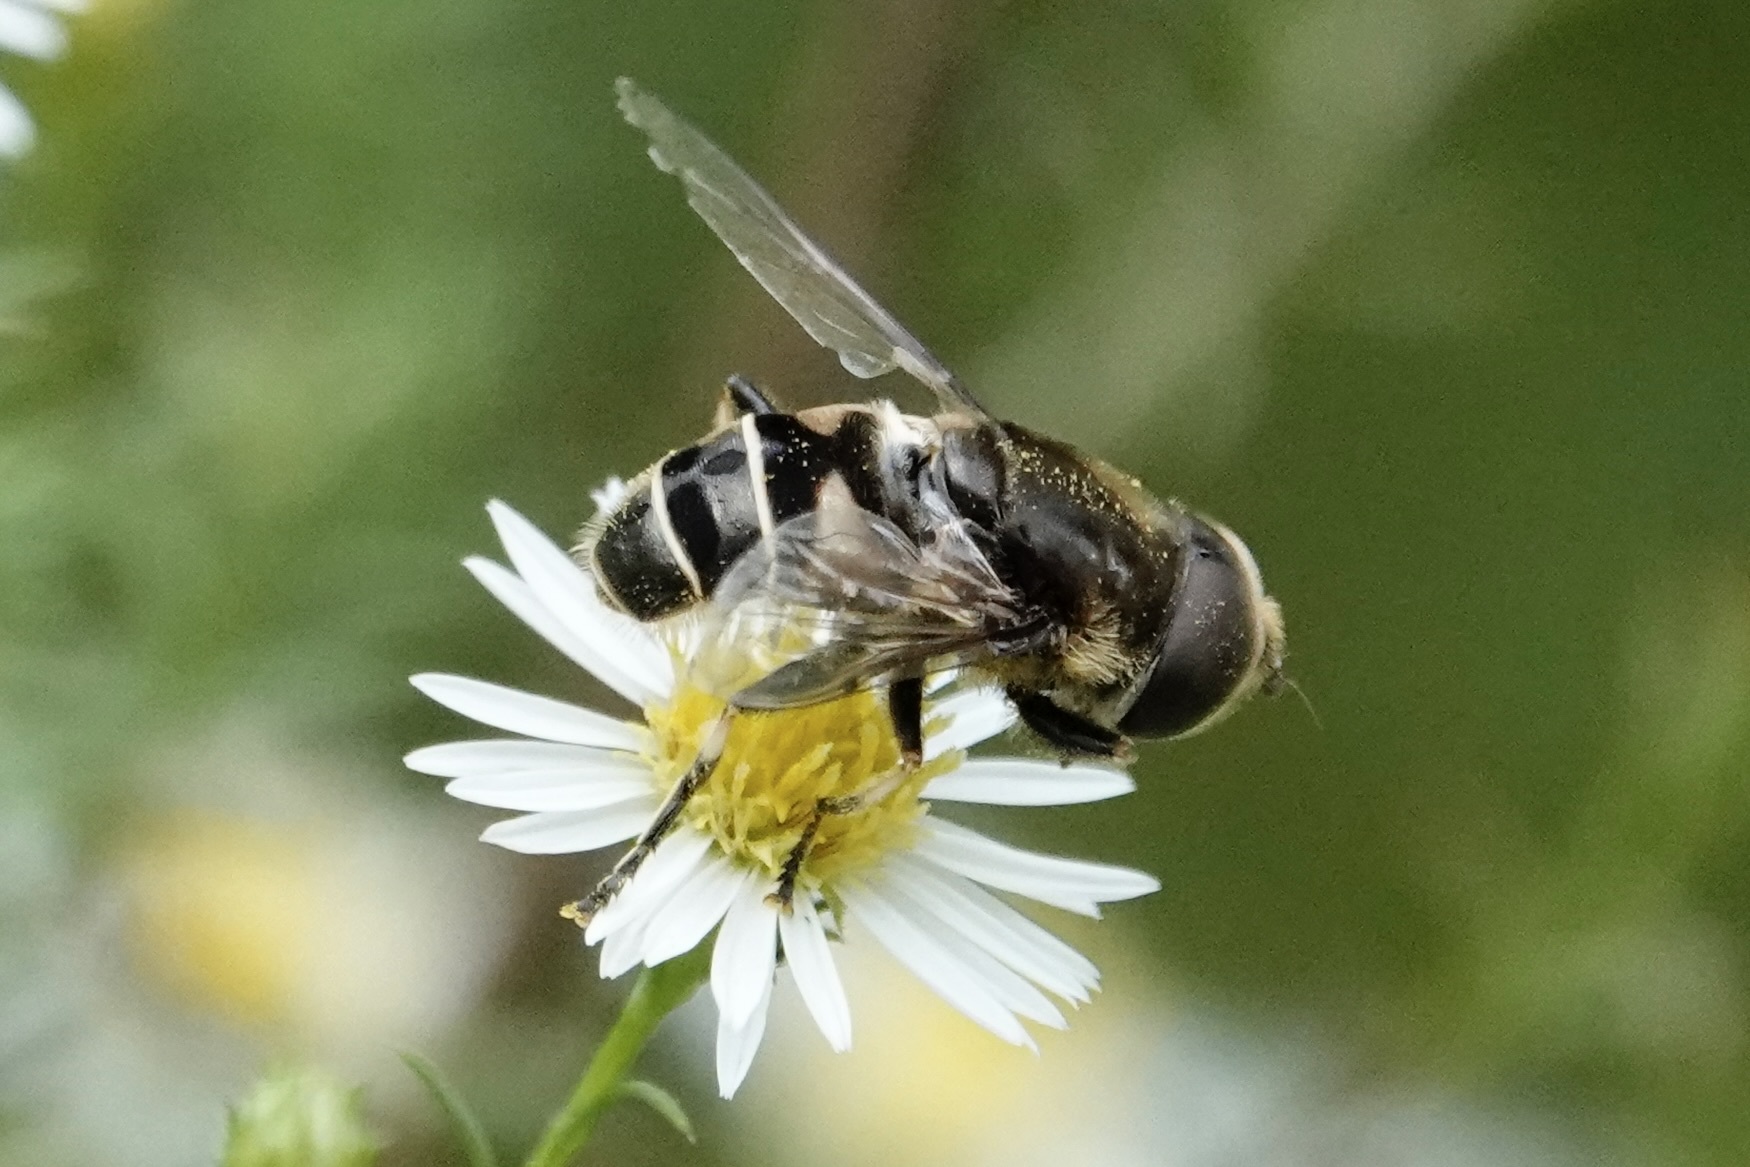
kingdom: Animalia
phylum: Arthropoda
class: Insecta
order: Diptera
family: Syrphidae
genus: Eristalis
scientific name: Eristalis dimidiata
